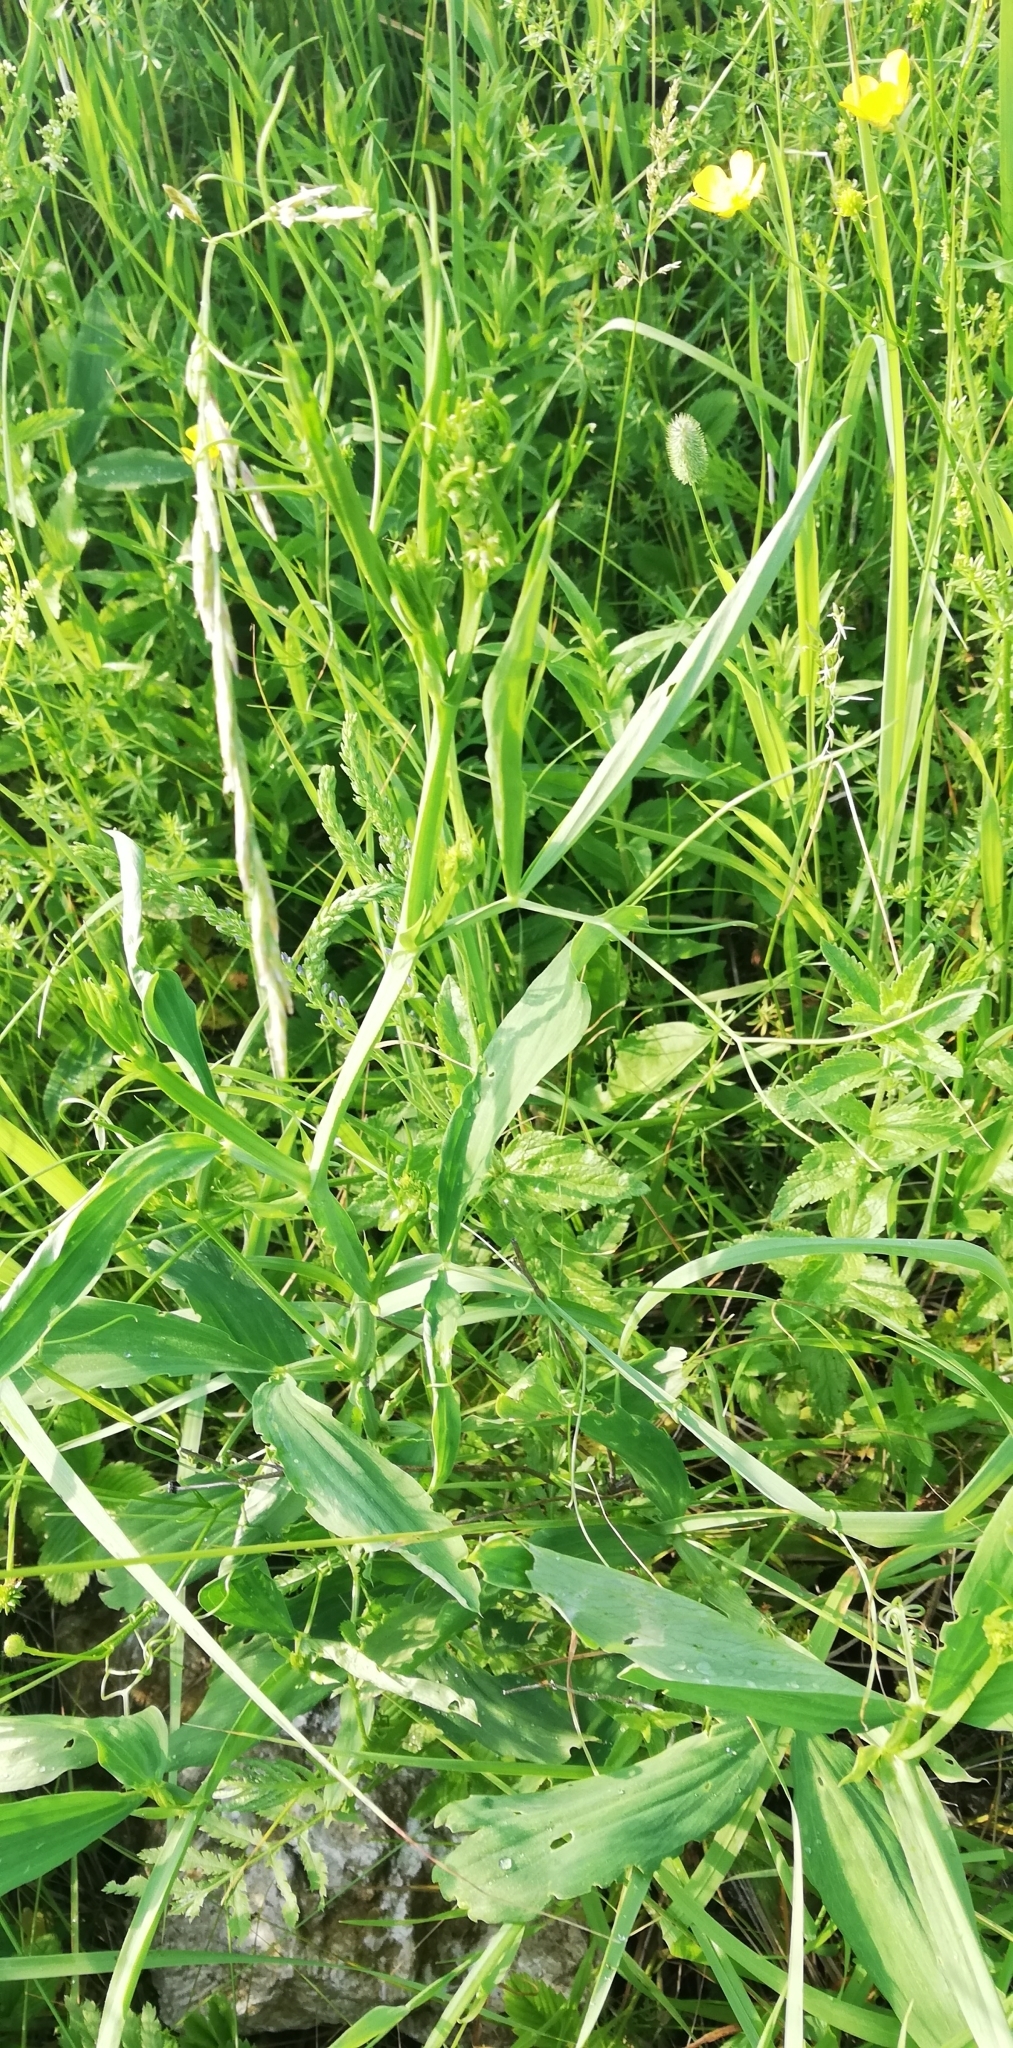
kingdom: Plantae
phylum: Tracheophyta
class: Magnoliopsida
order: Fabales
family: Fabaceae
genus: Lathyrus
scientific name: Lathyrus sylvestris
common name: Flat pea
